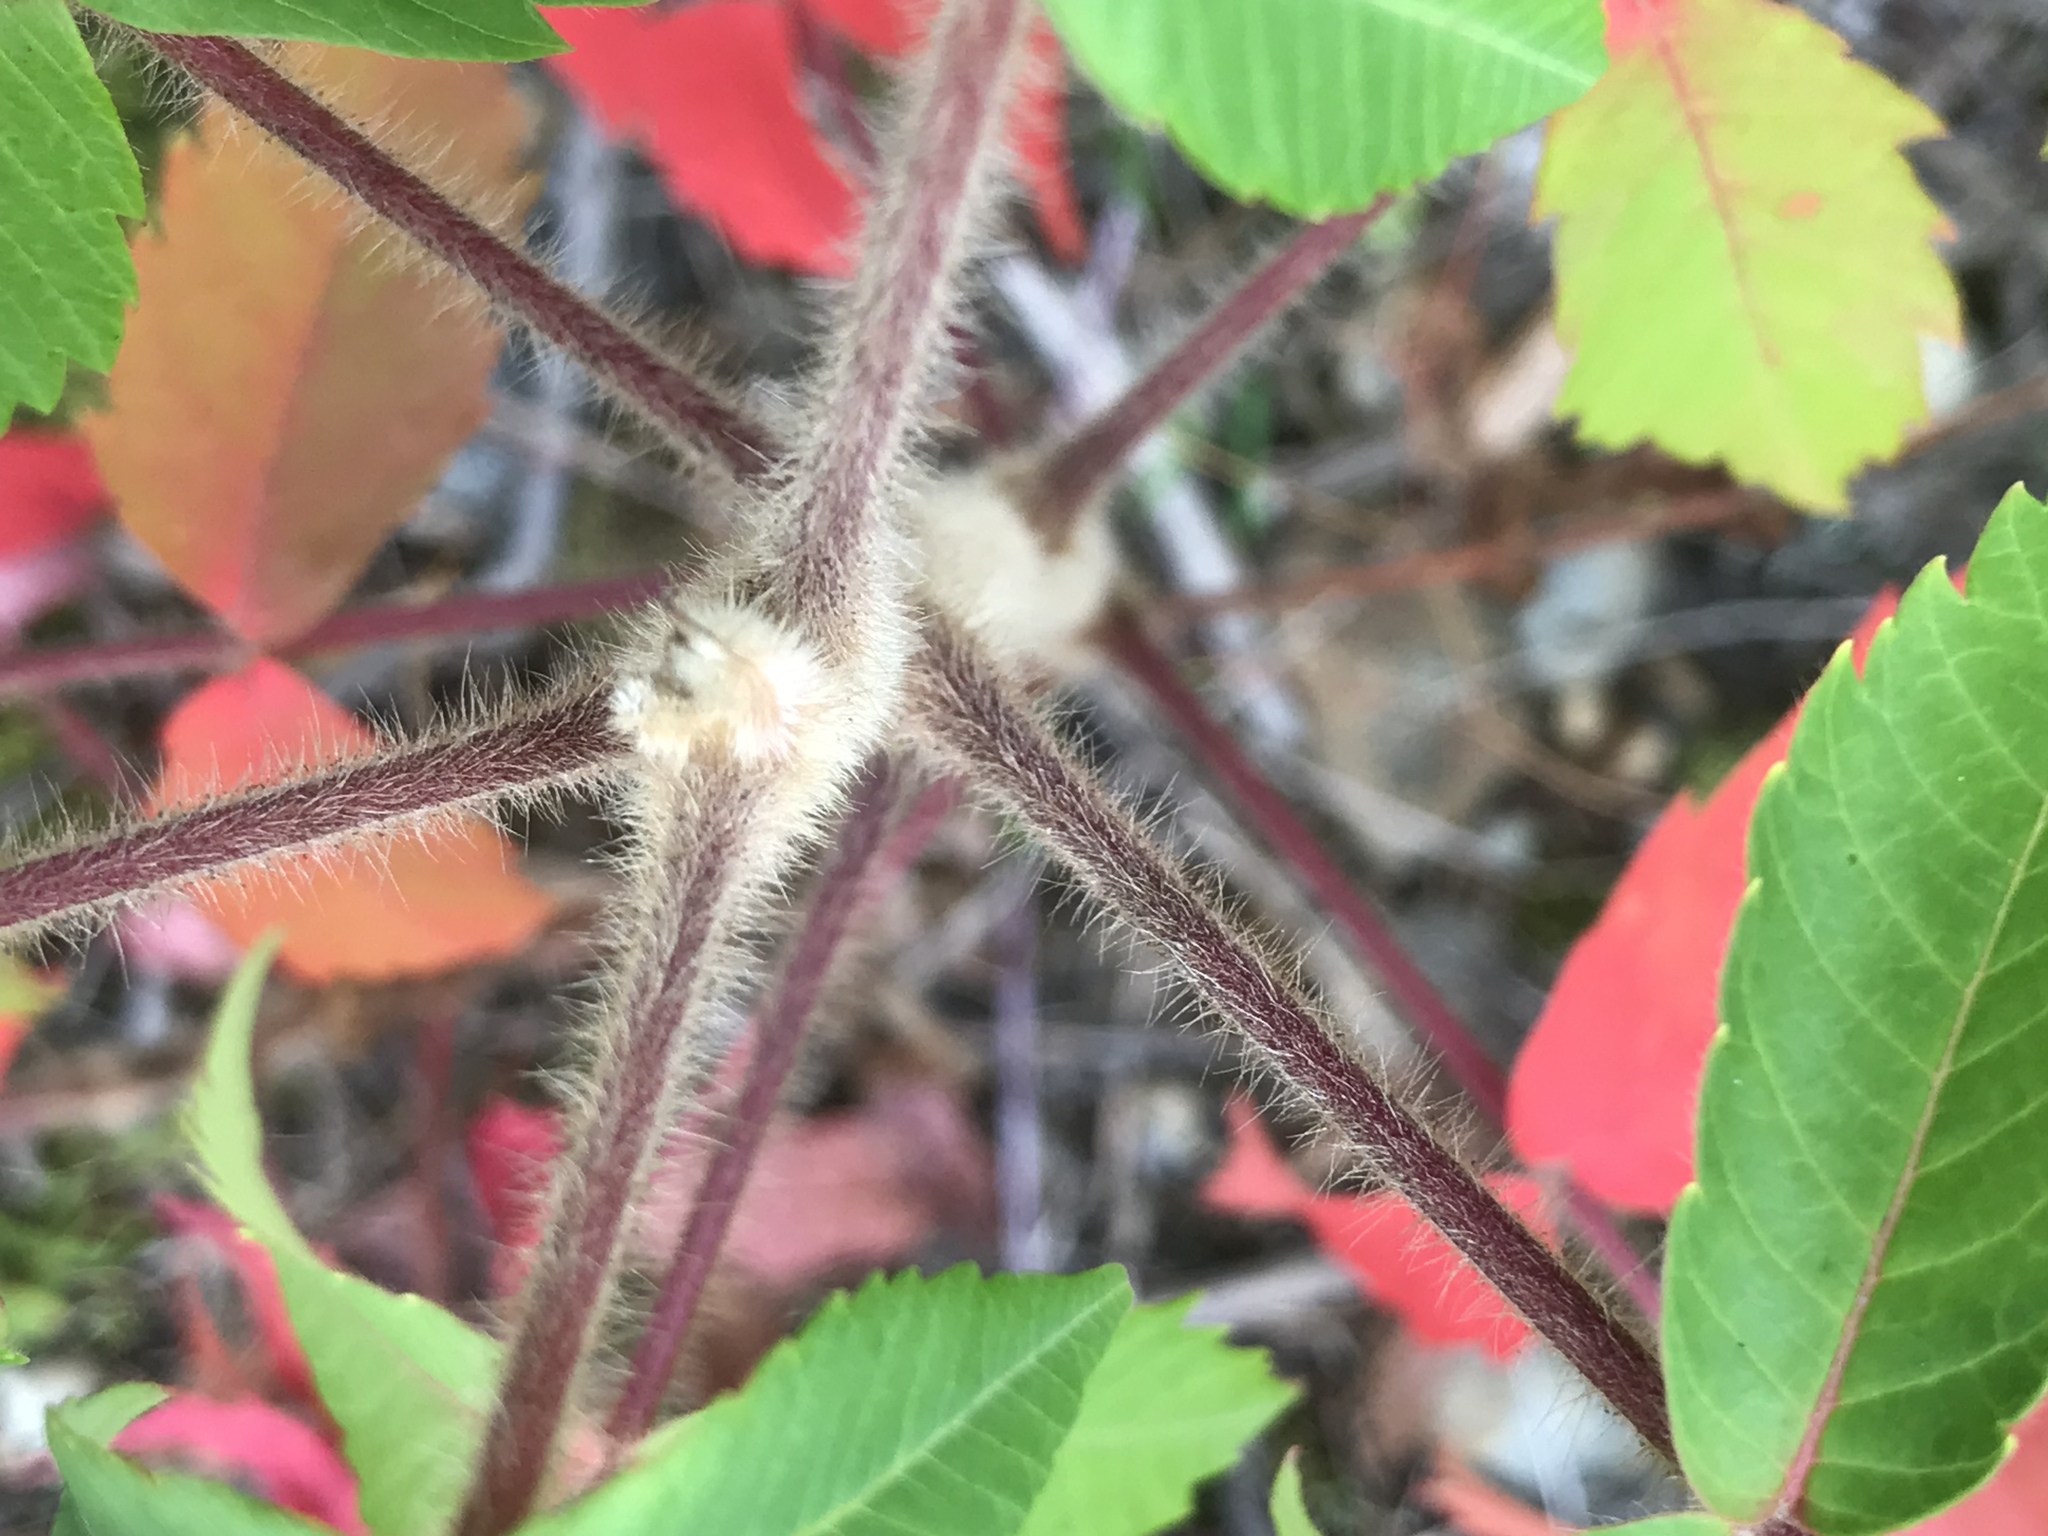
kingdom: Plantae
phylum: Tracheophyta
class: Magnoliopsida
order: Sapindales
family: Anacardiaceae
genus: Rhus
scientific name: Rhus typhina
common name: Staghorn sumac
